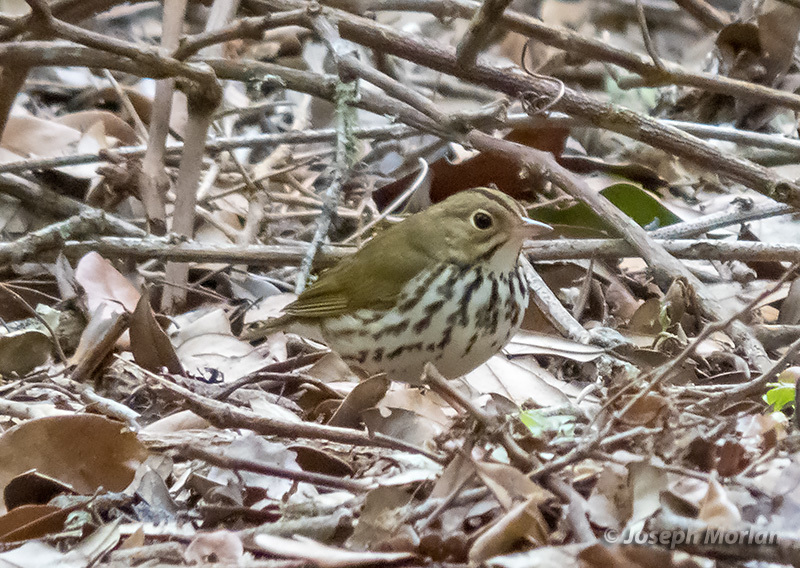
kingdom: Animalia
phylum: Chordata
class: Aves
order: Passeriformes
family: Parulidae
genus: Seiurus
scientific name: Seiurus aurocapilla
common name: Ovenbird
